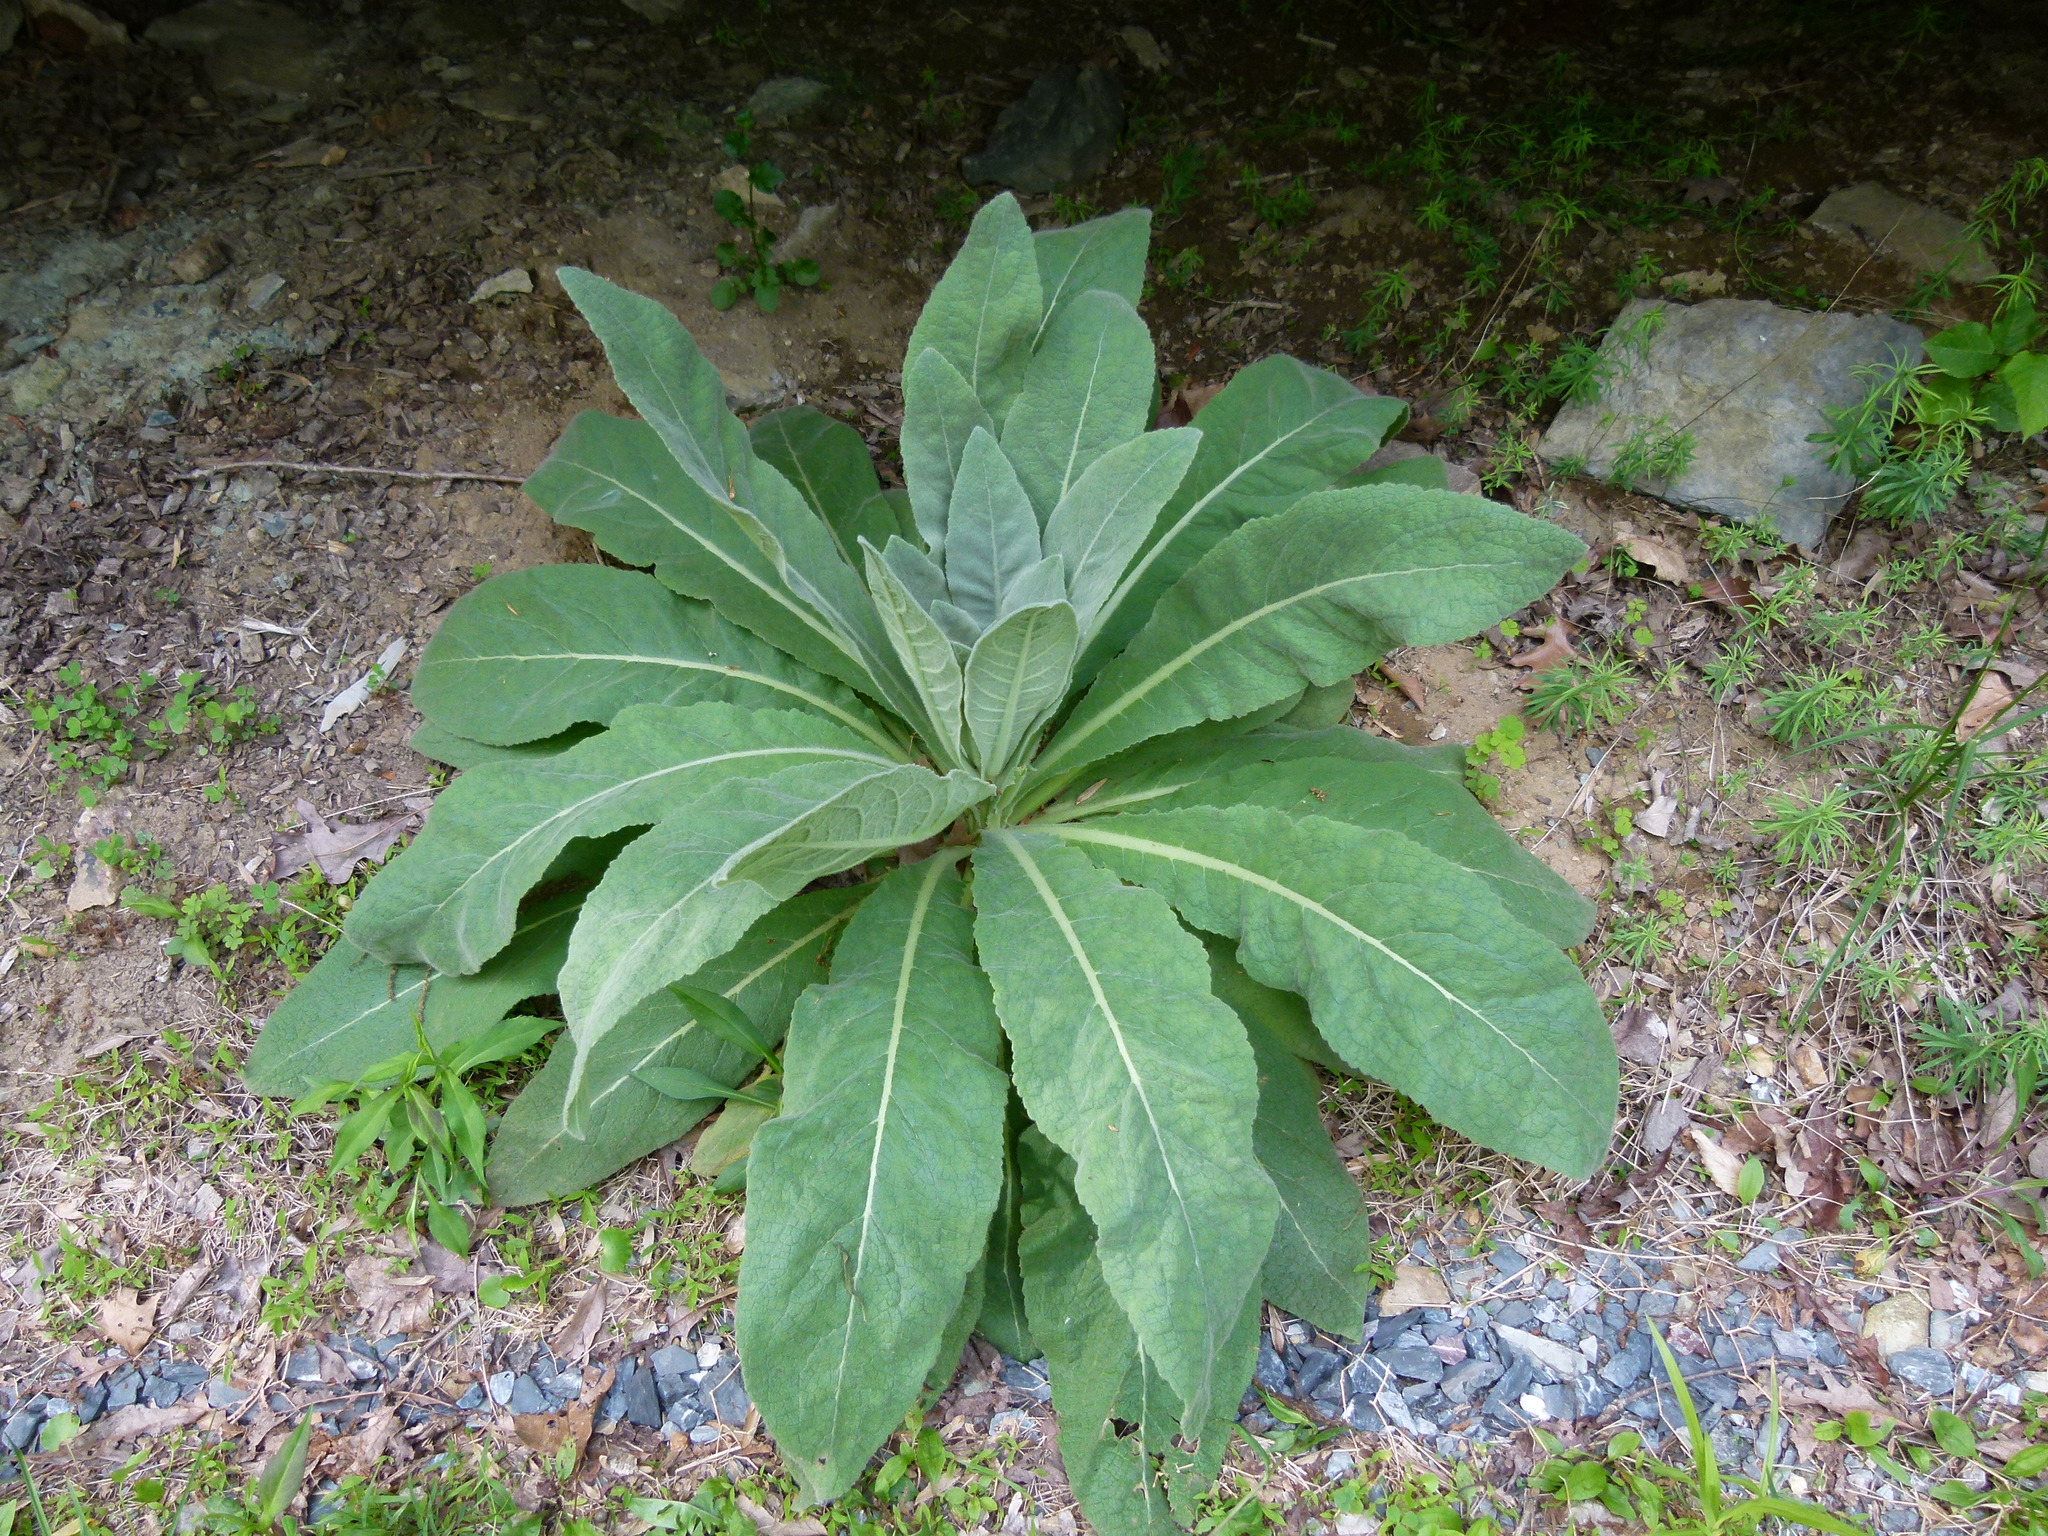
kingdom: Plantae
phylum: Tracheophyta
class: Magnoliopsida
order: Lamiales
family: Scrophulariaceae
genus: Verbascum
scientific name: Verbascum thapsus
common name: Common mullein
